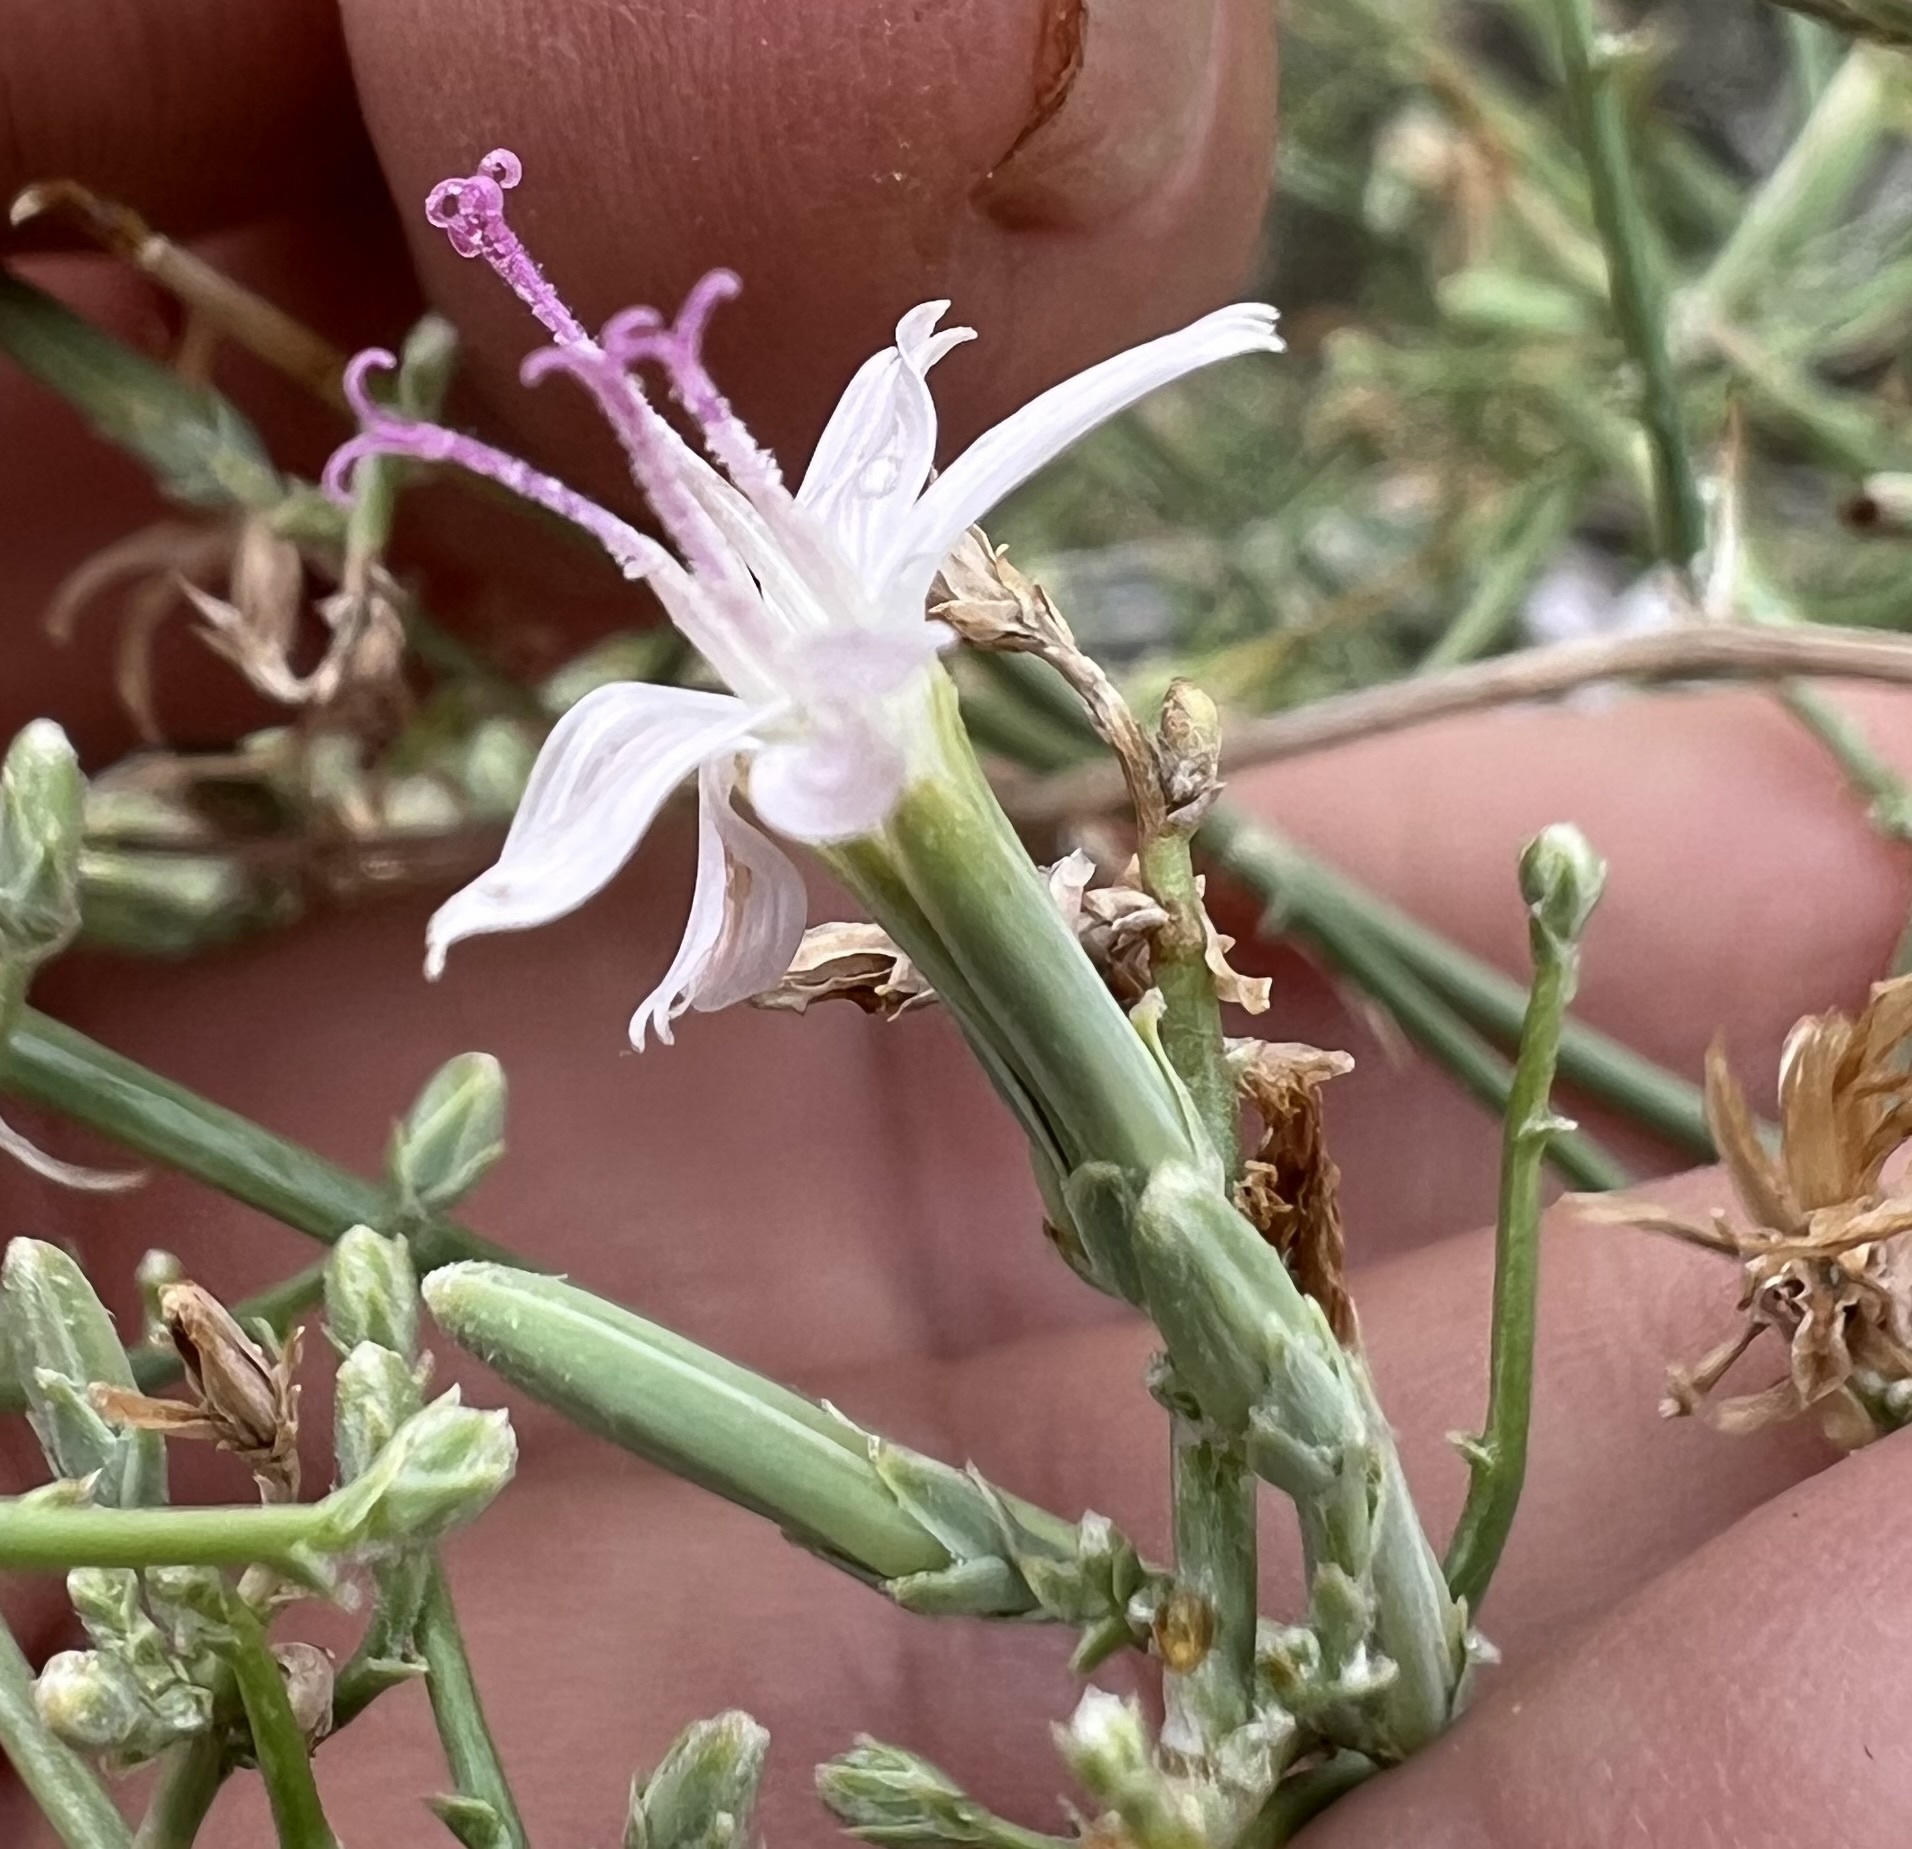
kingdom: Plantae
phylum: Tracheophyta
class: Magnoliopsida
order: Asterales
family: Asteraceae
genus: Stephanomeria
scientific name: Stephanomeria pauciflora
